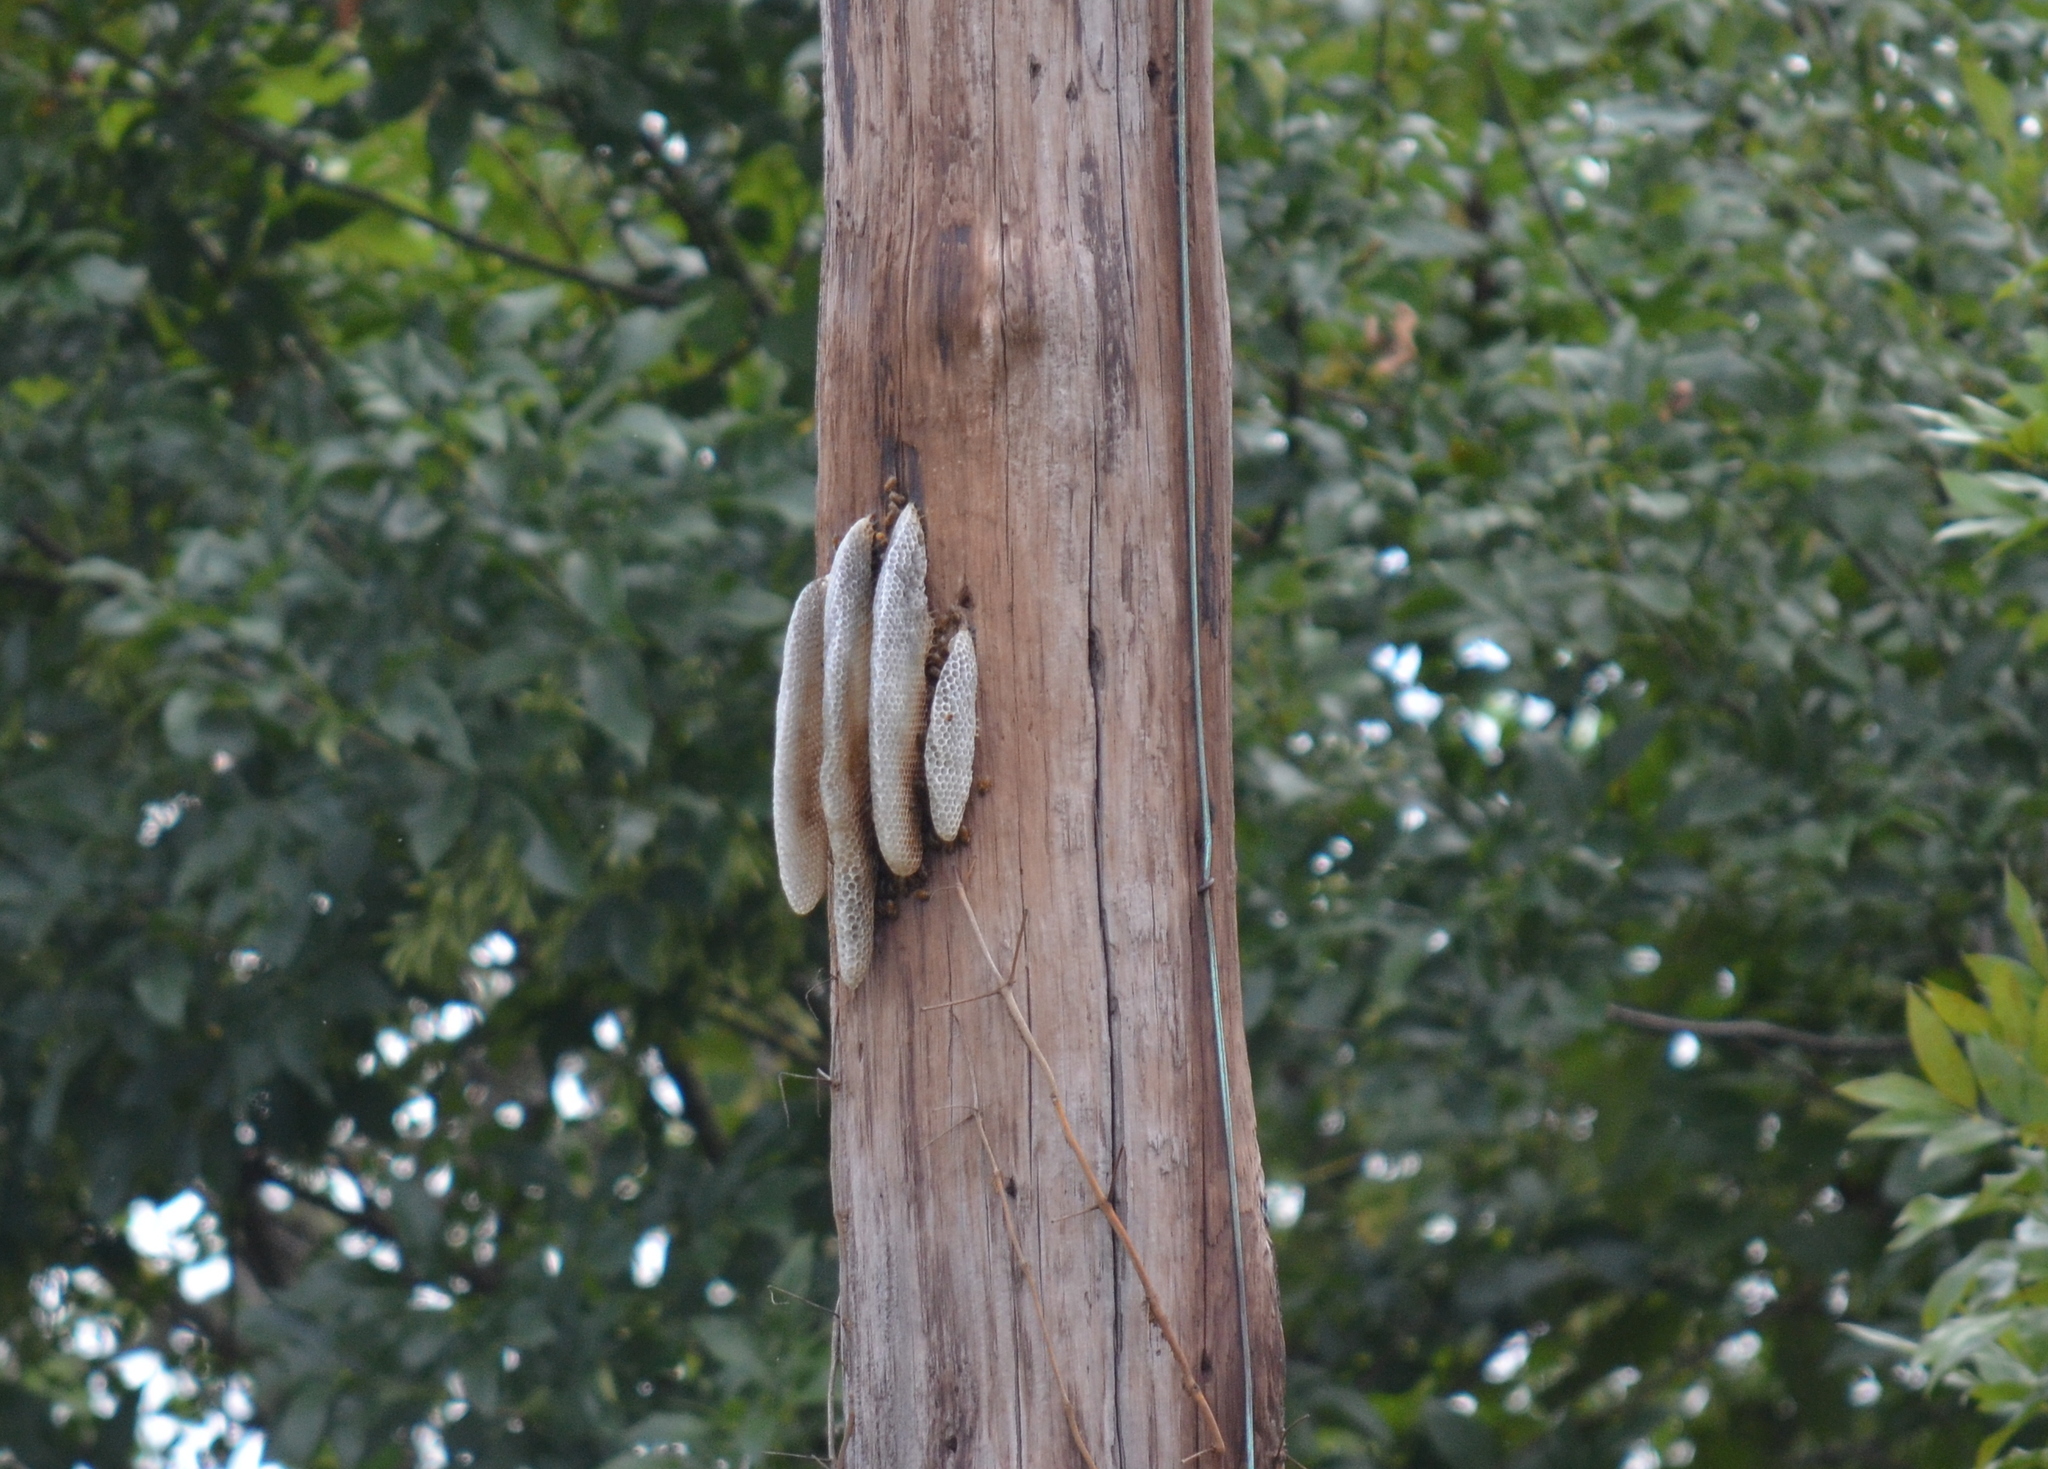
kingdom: Animalia
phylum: Arthropoda
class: Insecta
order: Hymenoptera
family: Apidae
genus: Apis
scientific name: Apis mellifera
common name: Honey bee
